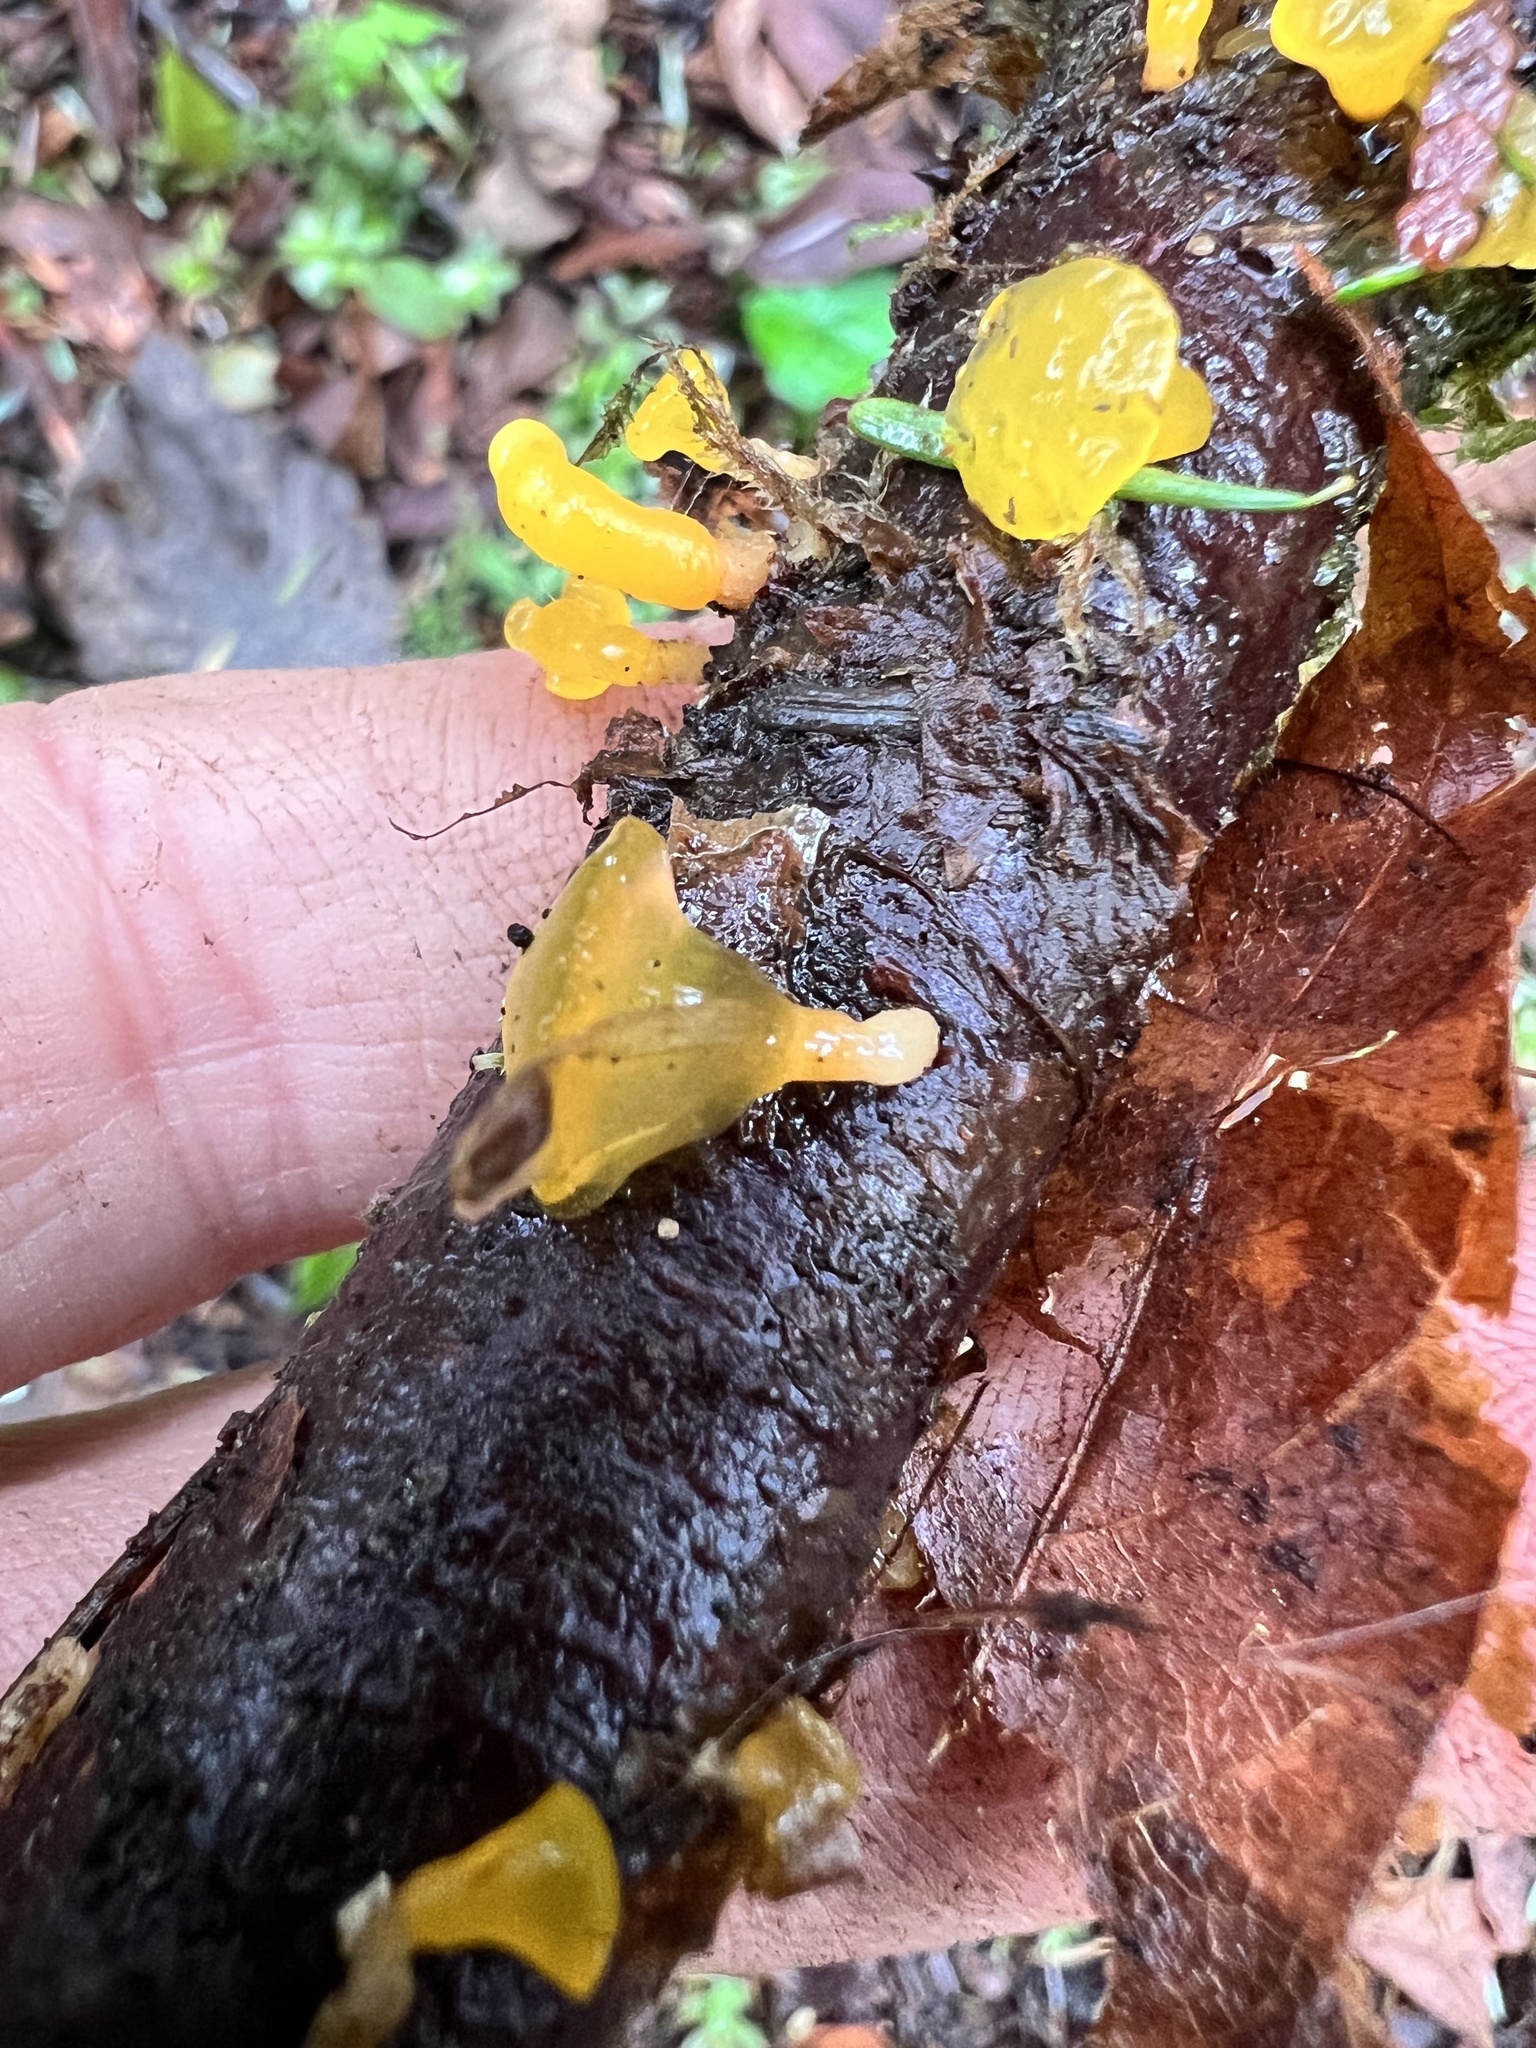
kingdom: Fungi
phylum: Basidiomycota
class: Dacrymycetes
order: Dacrymycetales
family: Dacrymycetaceae
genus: Guepiniopsis
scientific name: Guepiniopsis alpina
